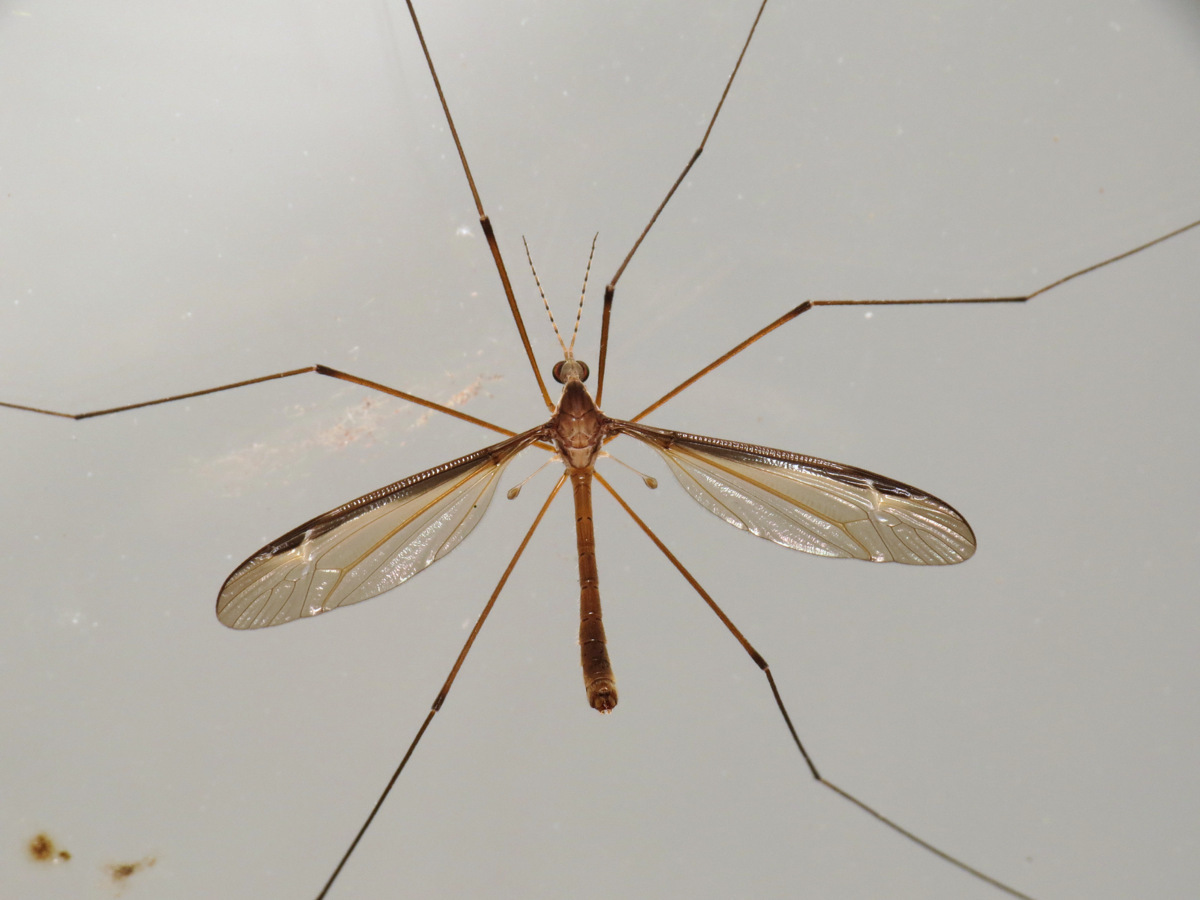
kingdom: Animalia
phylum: Arthropoda
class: Insecta
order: Diptera
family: Tipulidae
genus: Tipula
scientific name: Tipula sayi
